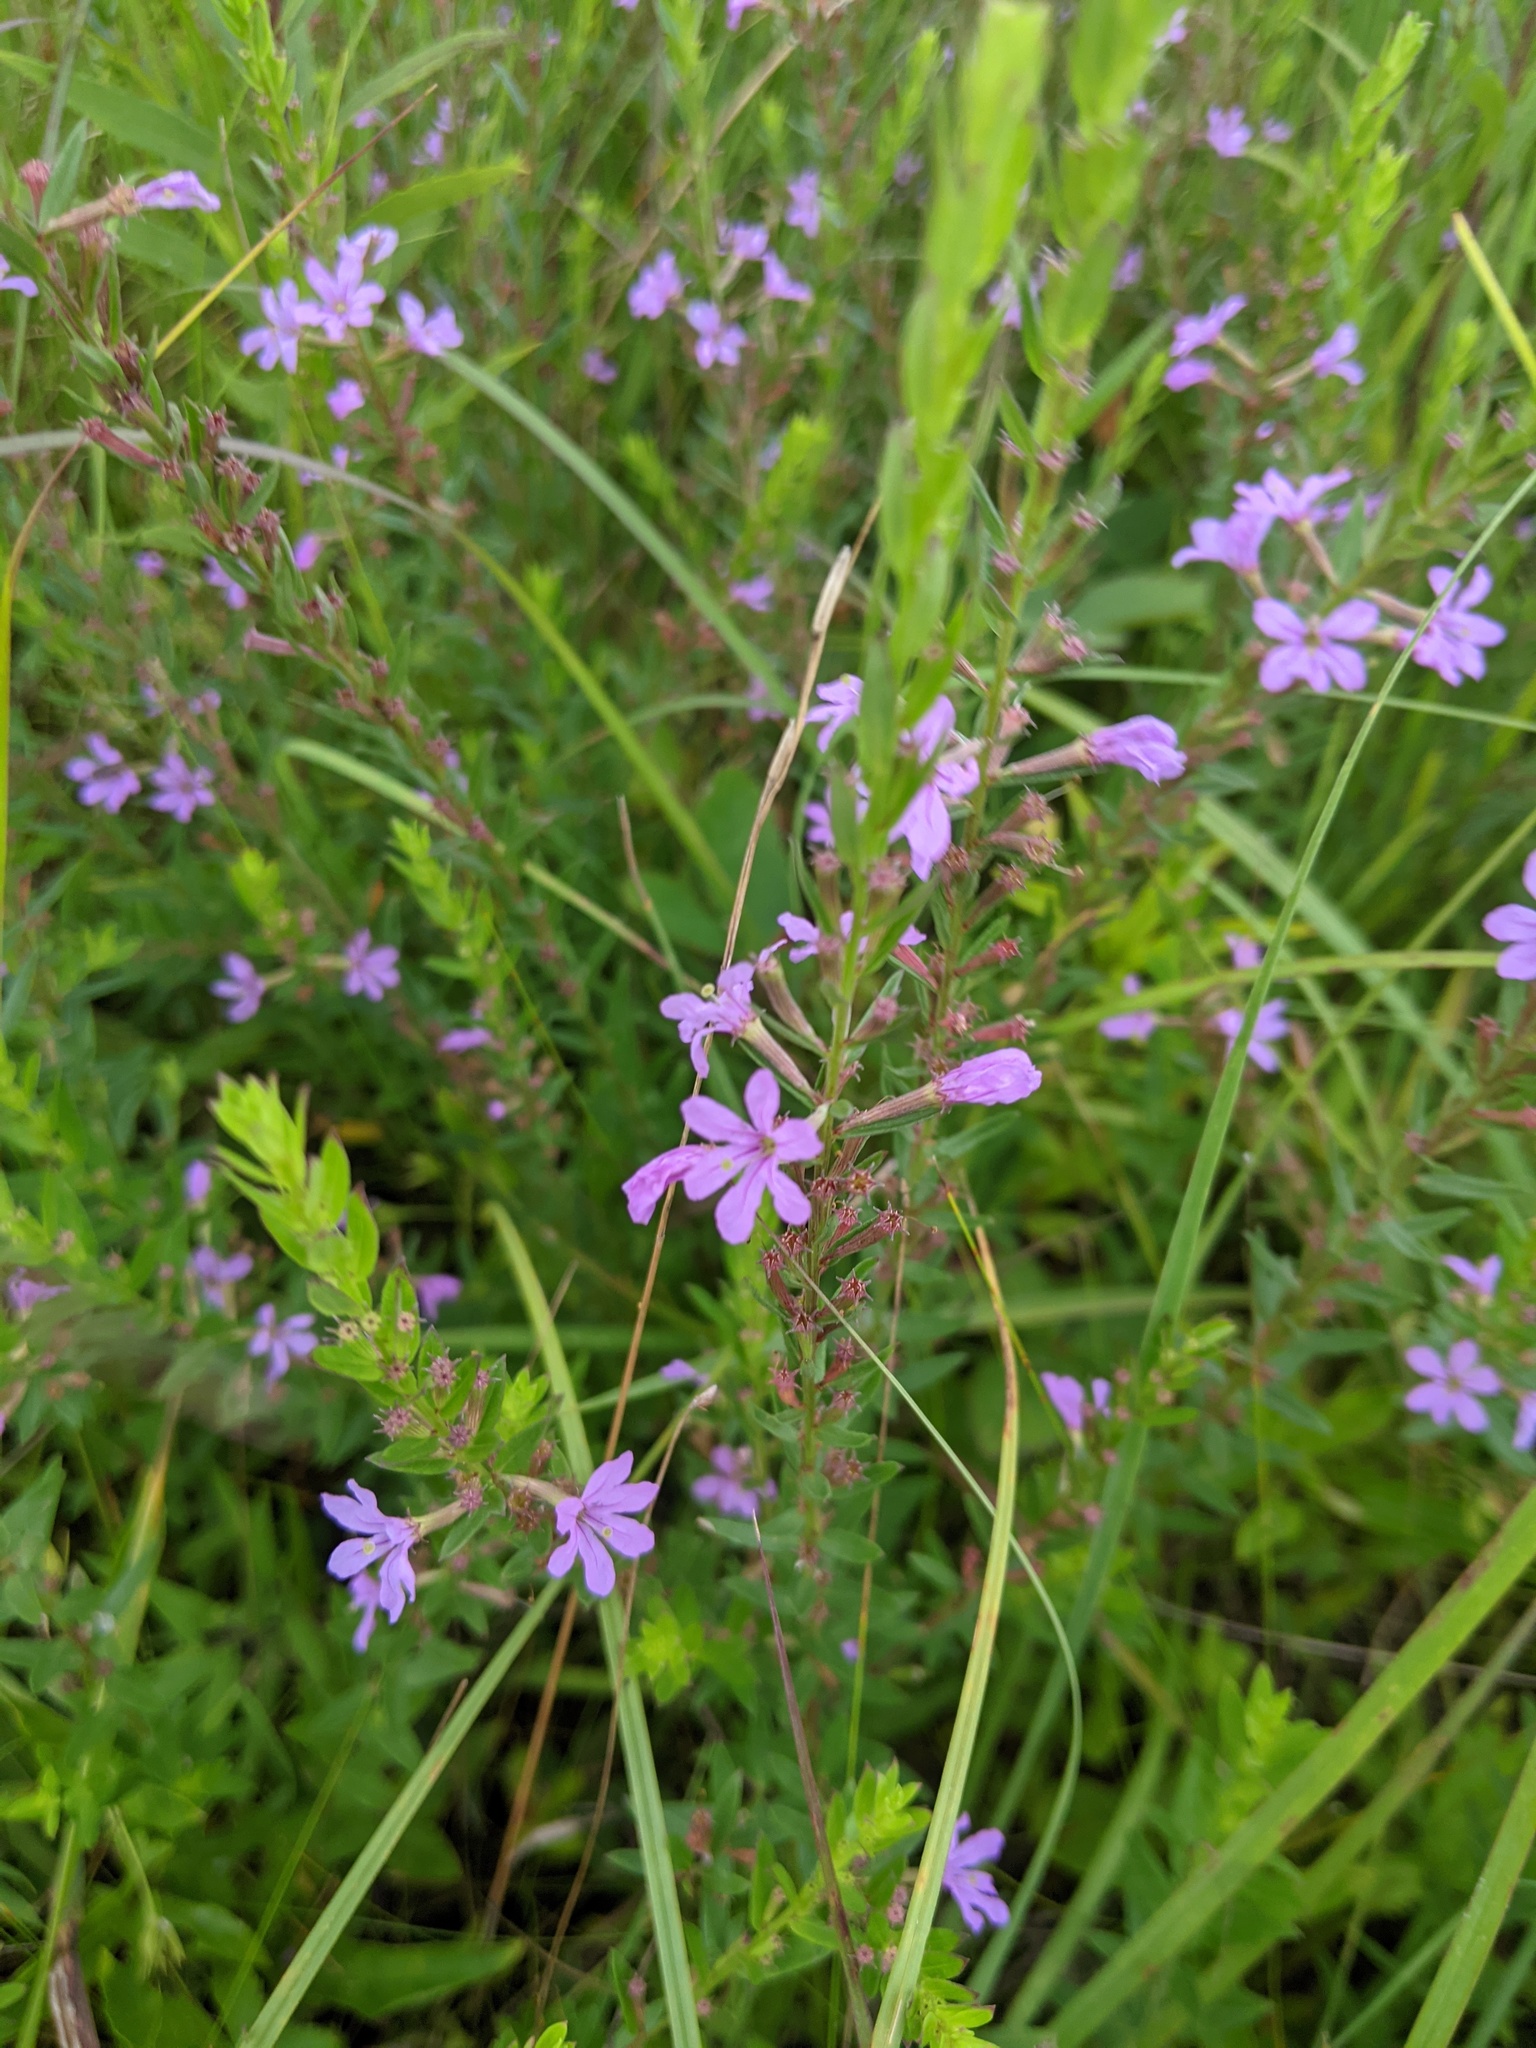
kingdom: Plantae
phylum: Tracheophyta
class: Magnoliopsida
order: Myrtales
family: Lythraceae
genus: Lythrum
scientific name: Lythrum alatum
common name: Winged loosestrife
